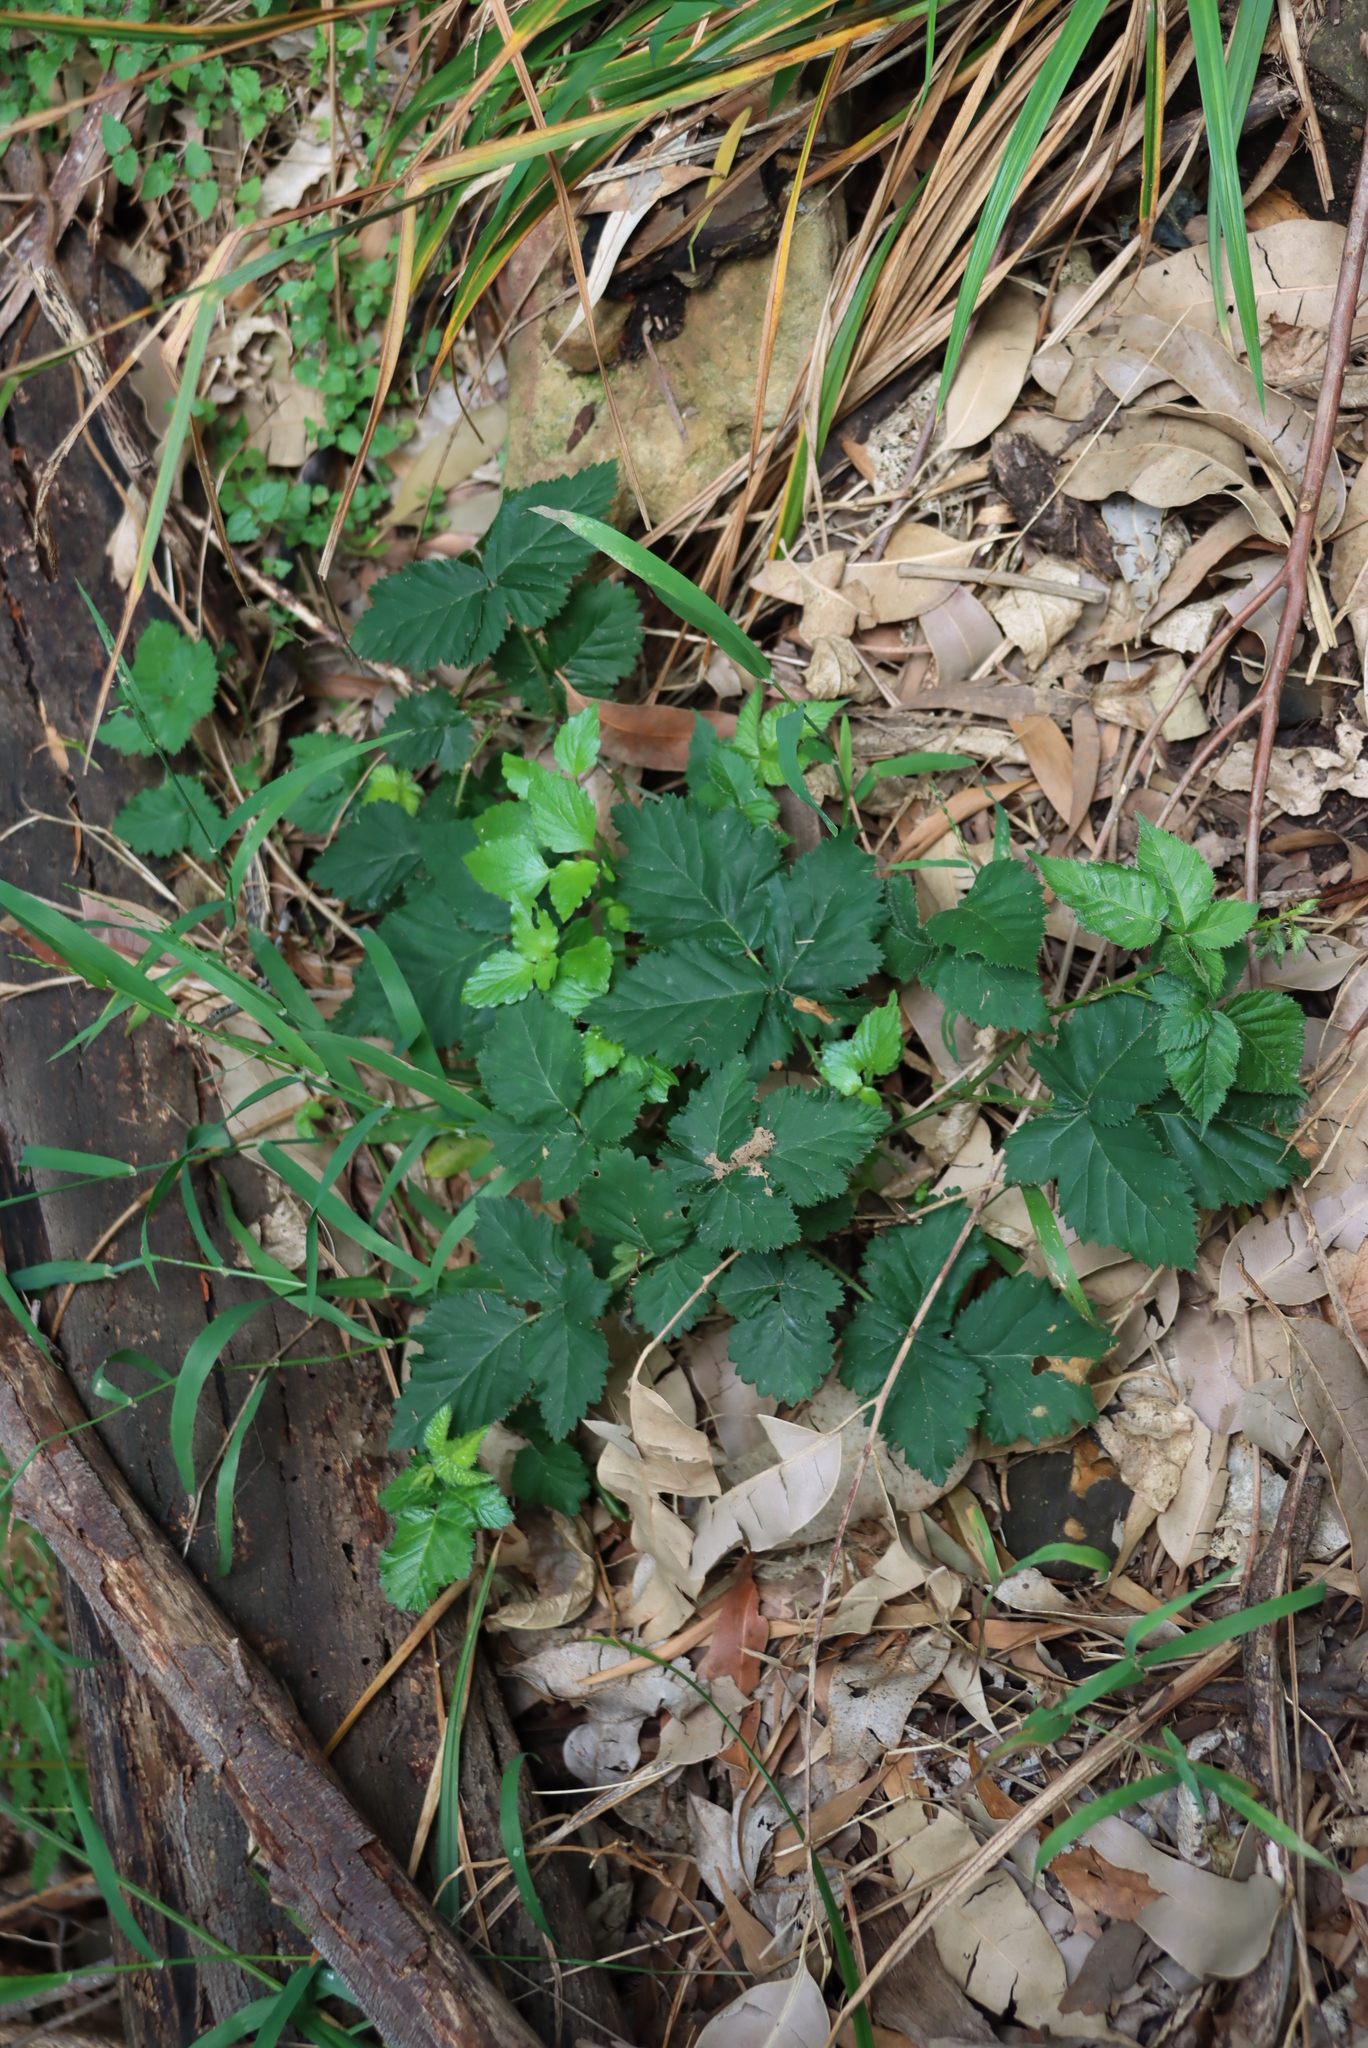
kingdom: Plantae
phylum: Tracheophyta
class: Magnoliopsida
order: Rosales
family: Rosaceae
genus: Rubus
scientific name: Rubus affinis
